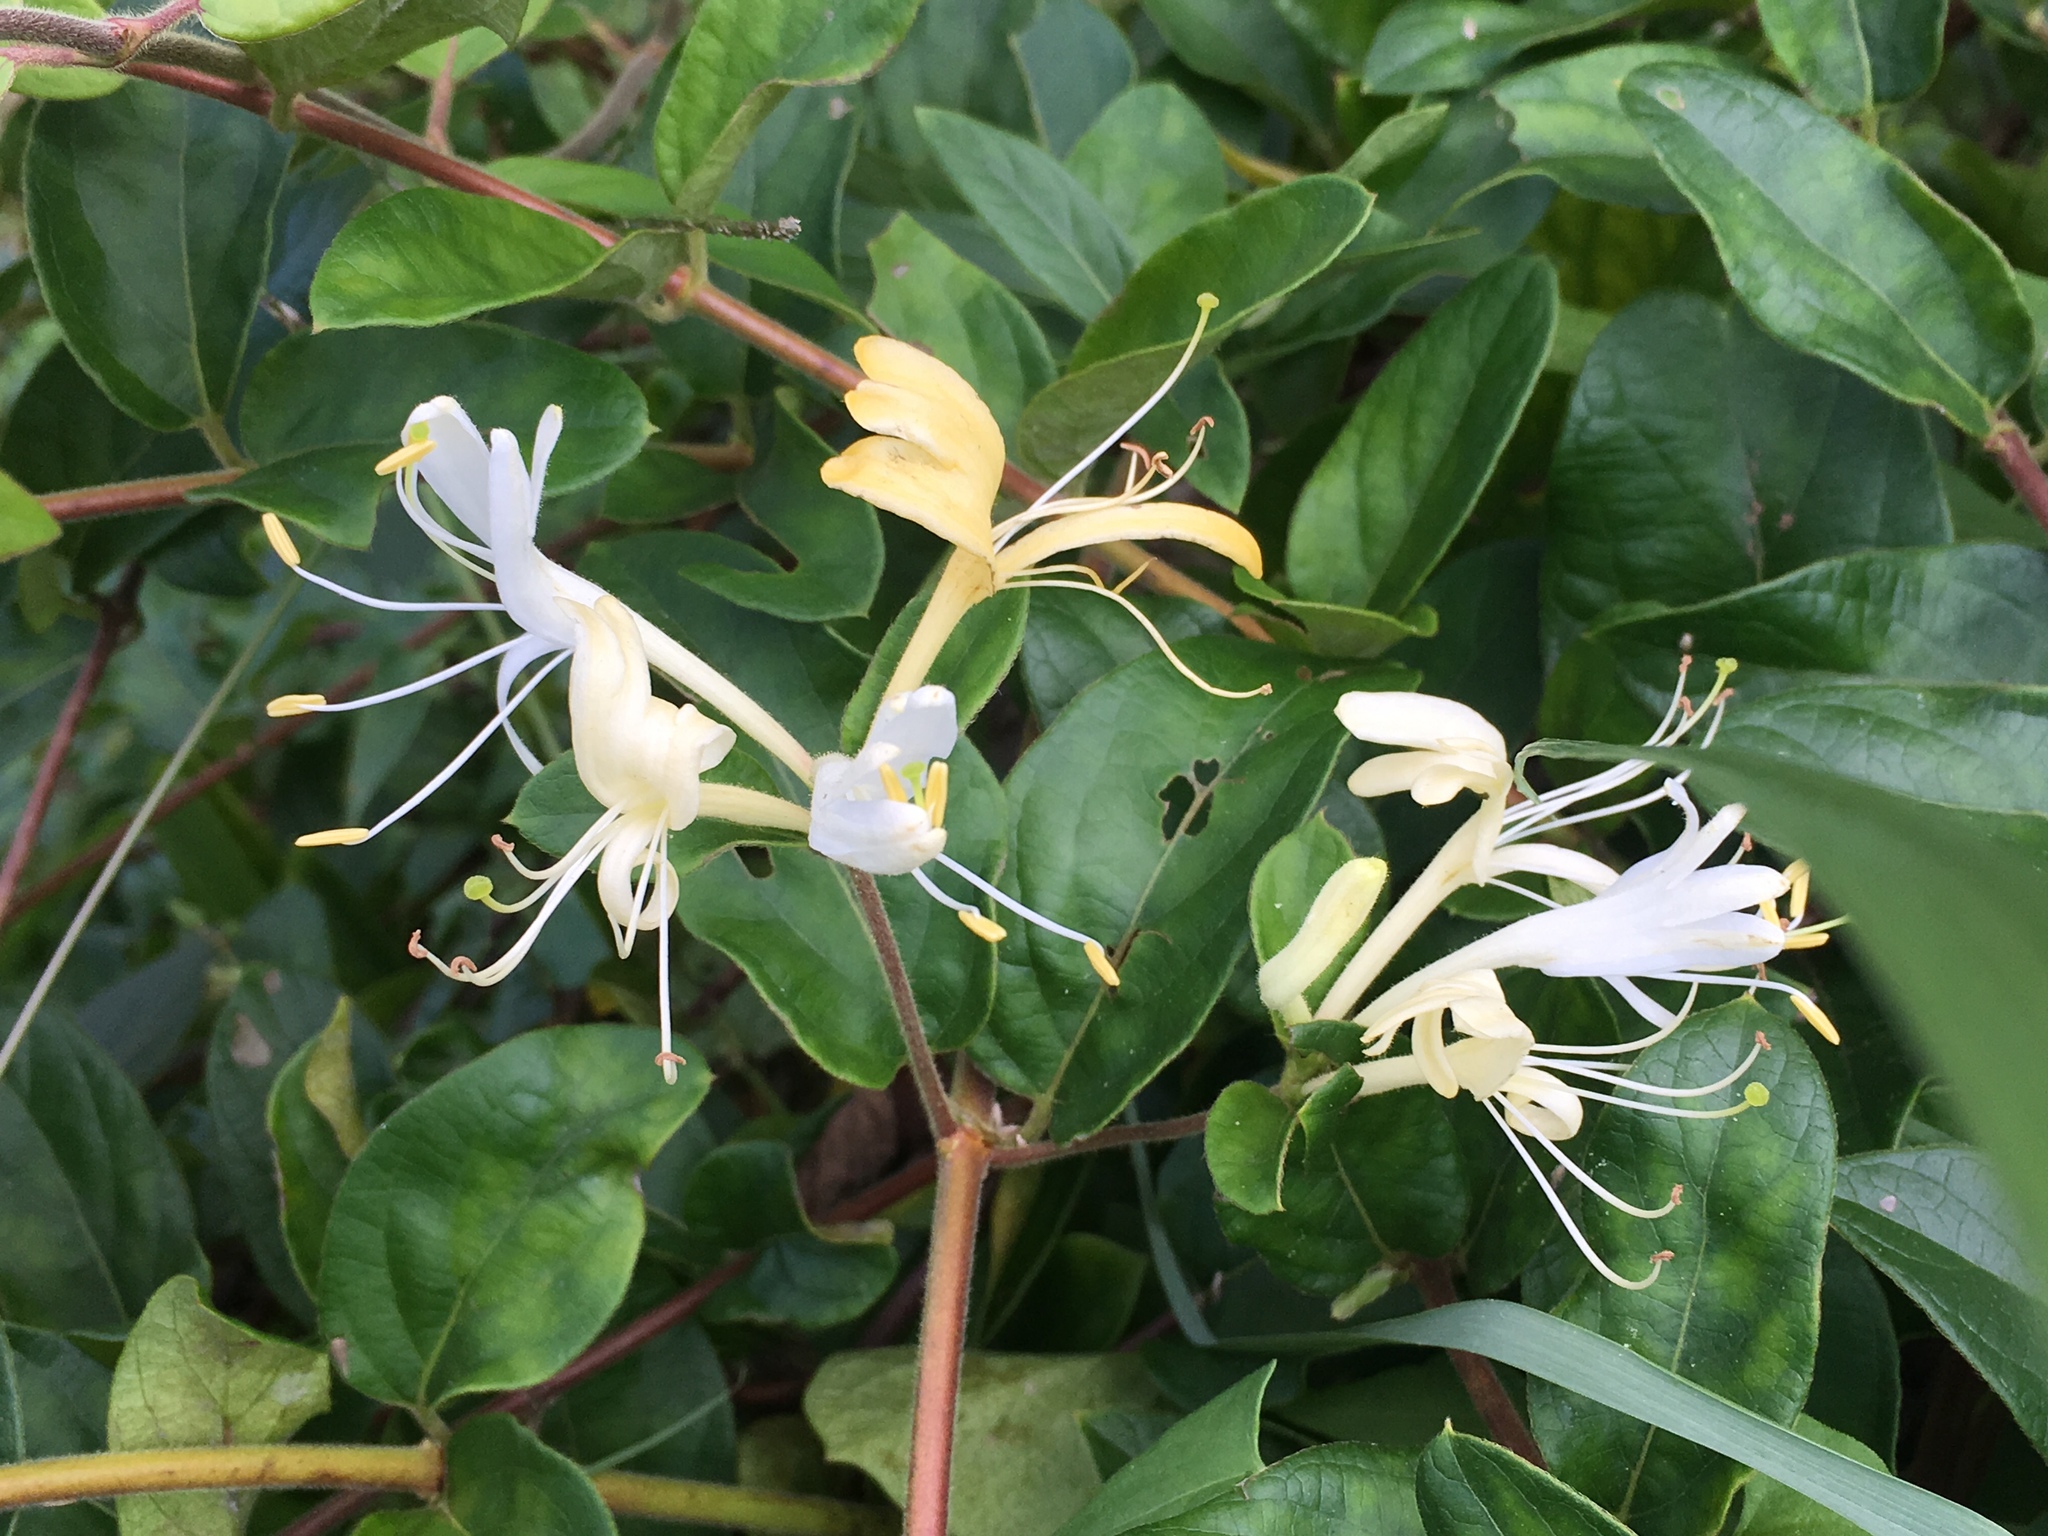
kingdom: Plantae
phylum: Tracheophyta
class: Magnoliopsida
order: Dipsacales
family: Caprifoliaceae
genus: Lonicera
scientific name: Lonicera japonica
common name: Japanese honeysuckle
